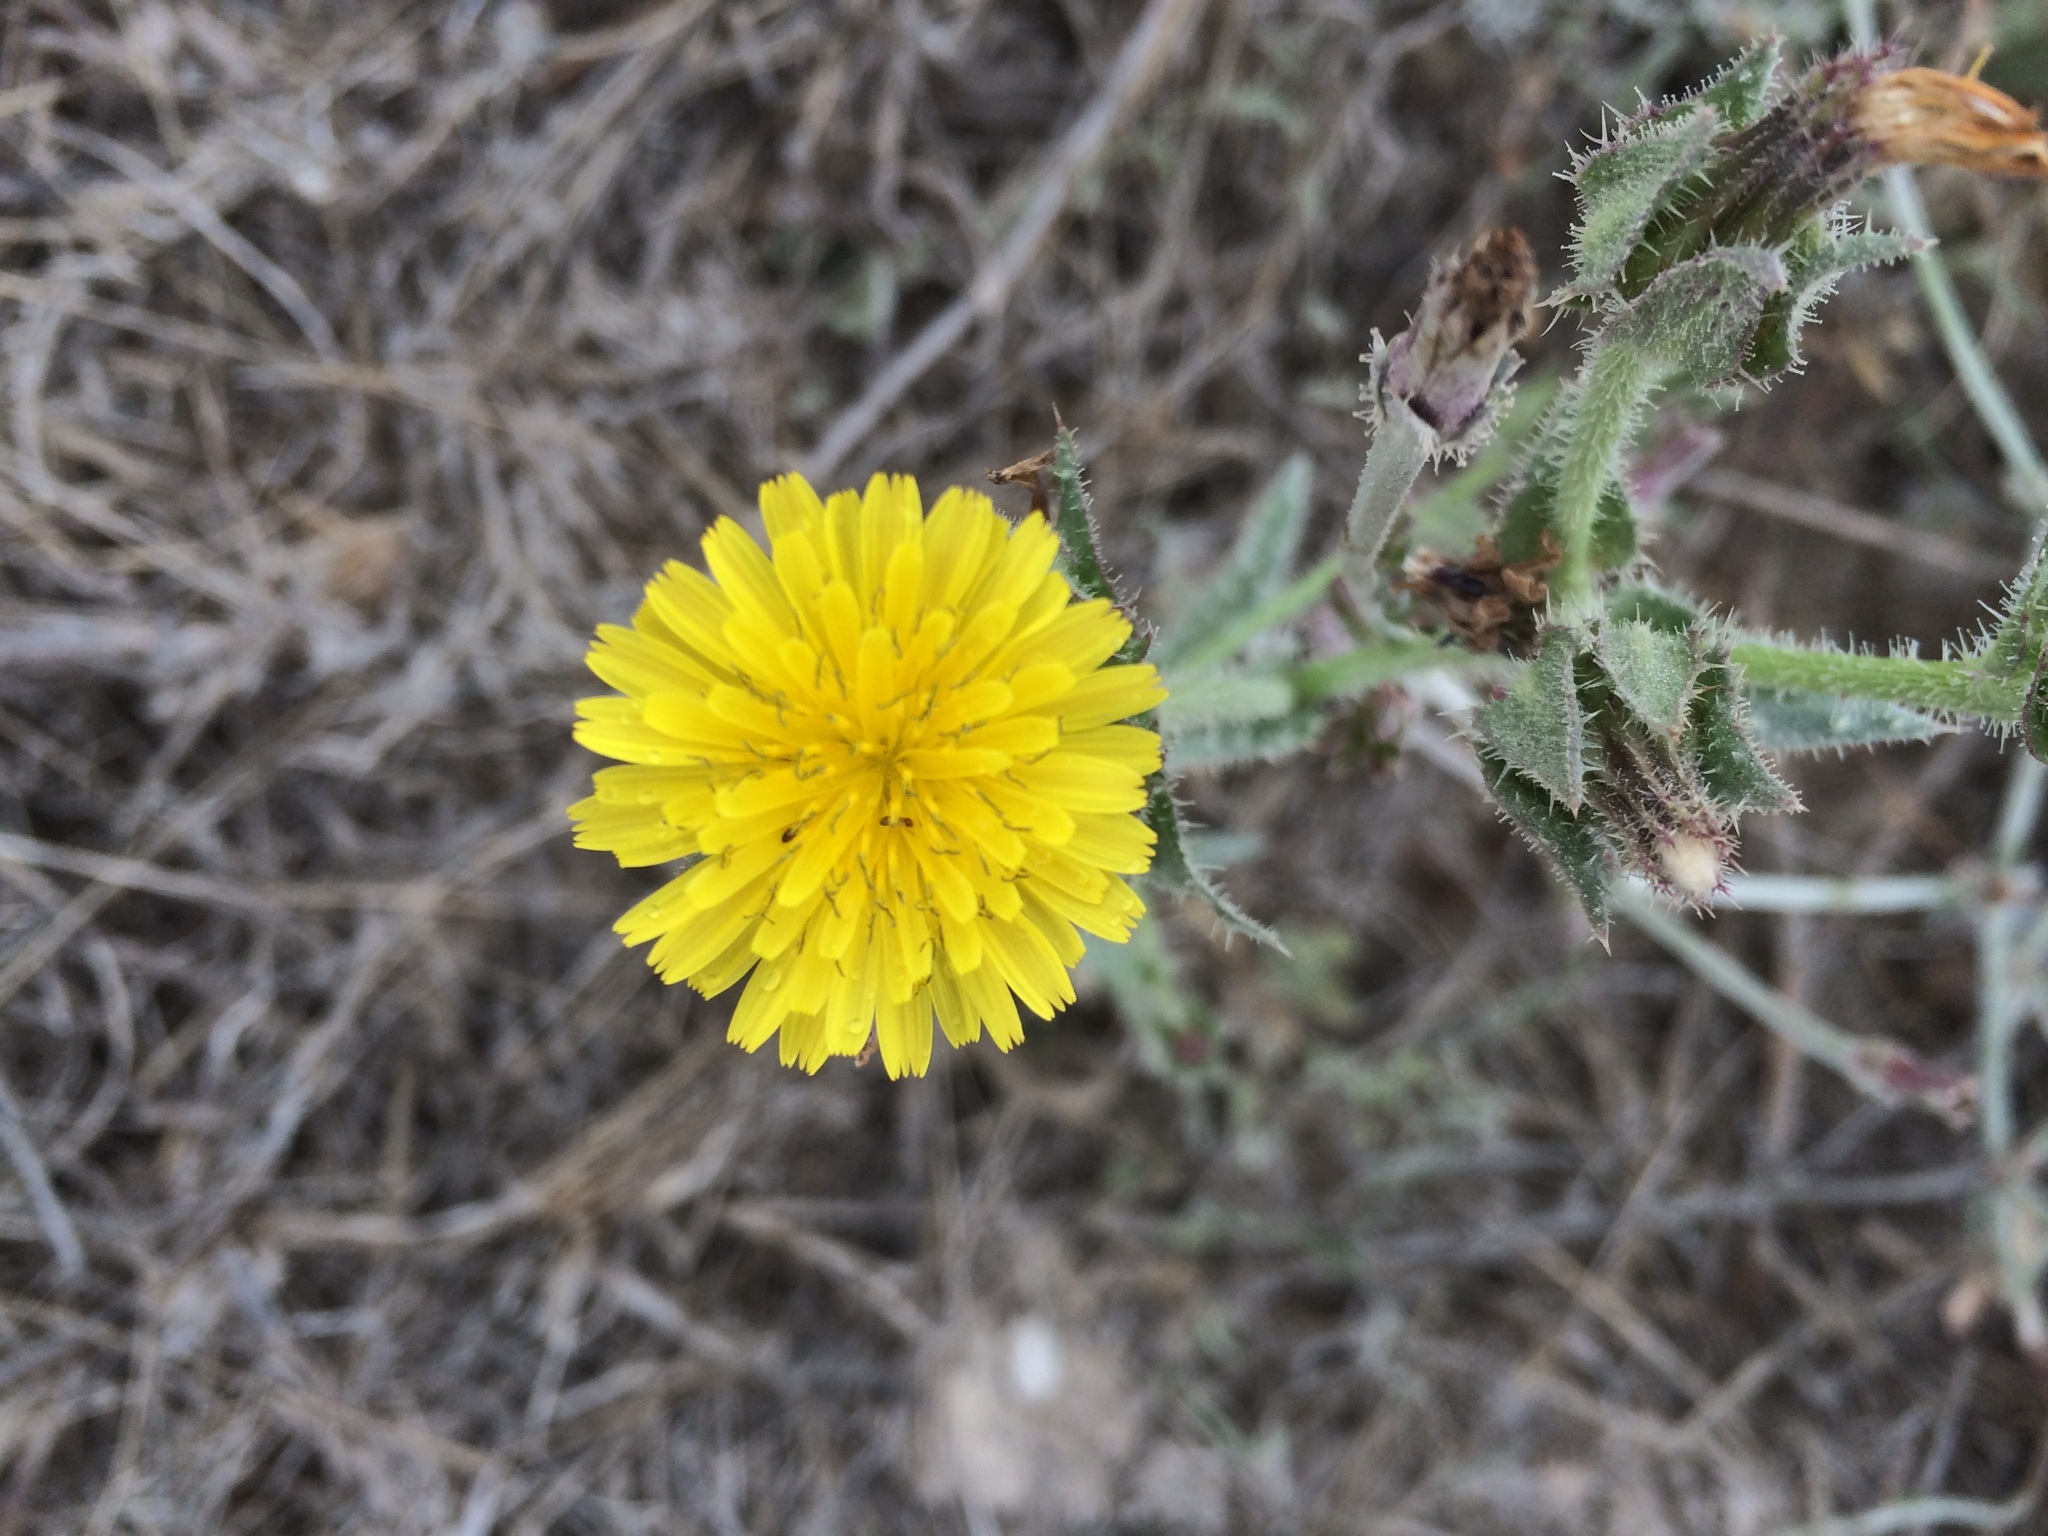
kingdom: Plantae
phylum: Tracheophyta
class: Magnoliopsida
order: Asterales
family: Asteraceae
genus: Helminthotheca
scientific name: Helminthotheca echioides
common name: Ox-tongue
